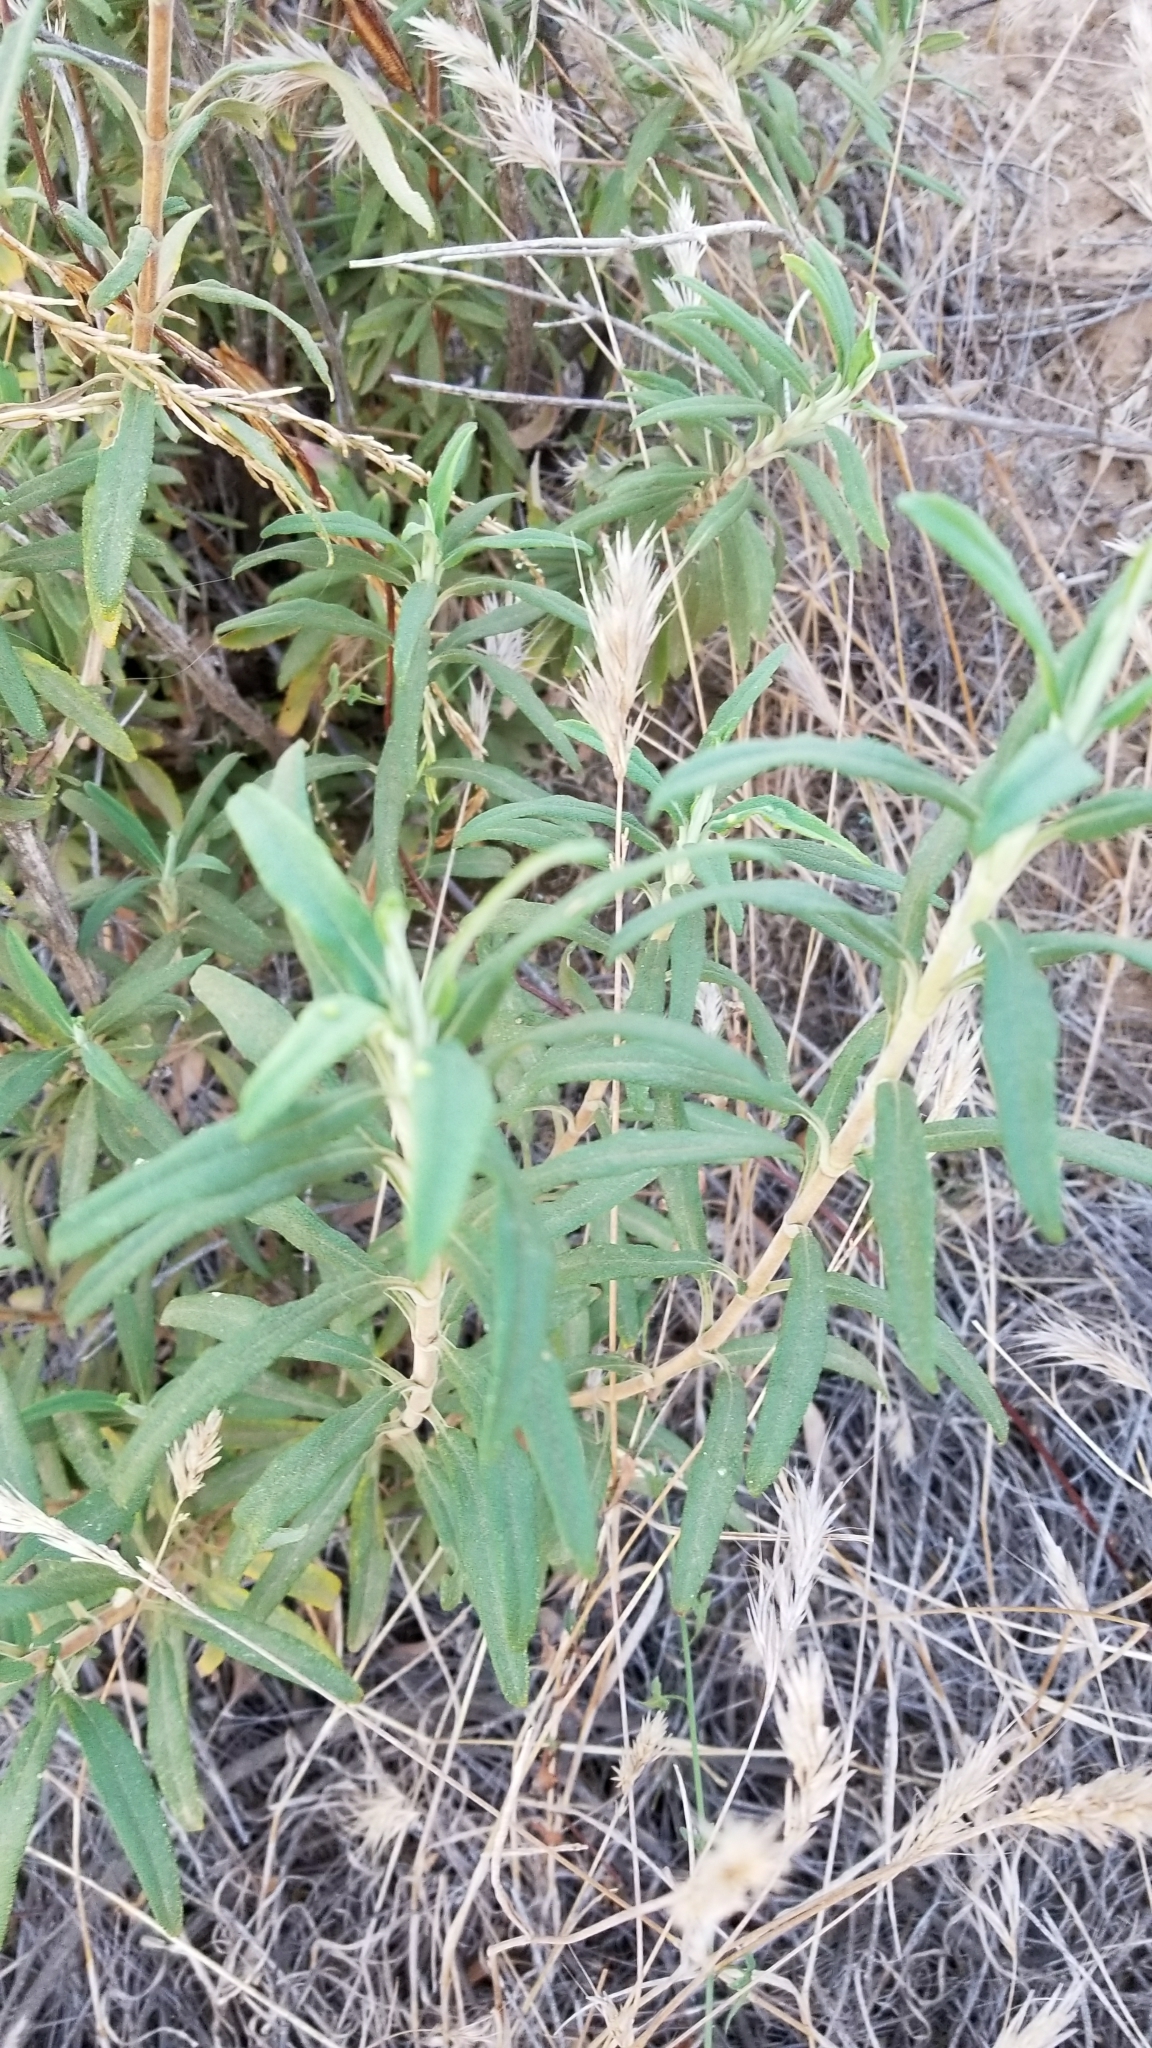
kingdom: Plantae
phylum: Tracheophyta
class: Magnoliopsida
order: Asterales
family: Asteraceae
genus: Baccharis
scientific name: Baccharis salicifolia
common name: Sticky baccharis
